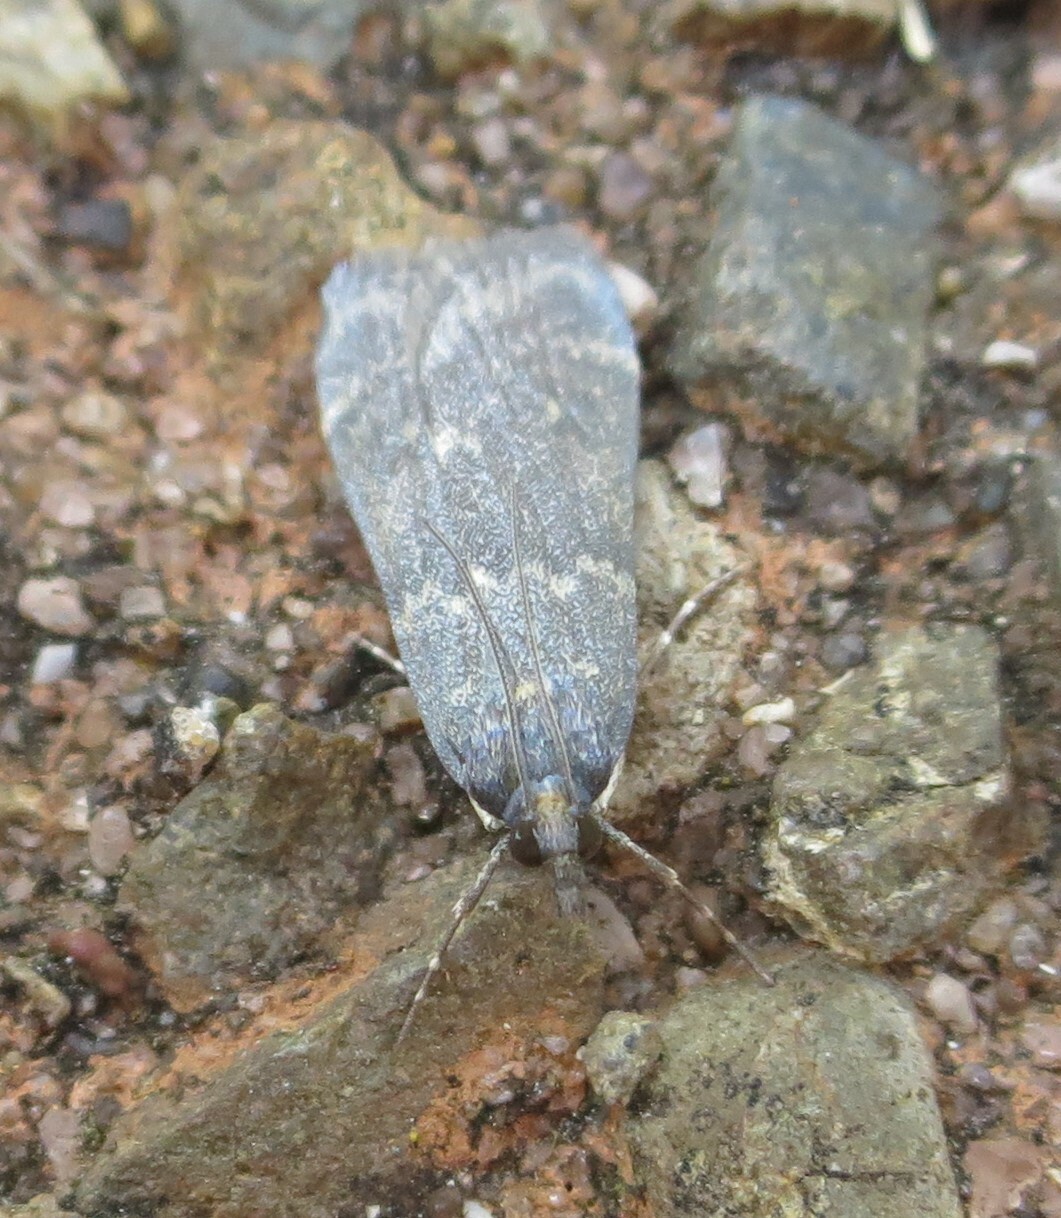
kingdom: Animalia
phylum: Arthropoda
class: Insecta
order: Lepidoptera
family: Crambidae
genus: Eudonia
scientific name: Eudonia cataxesta
